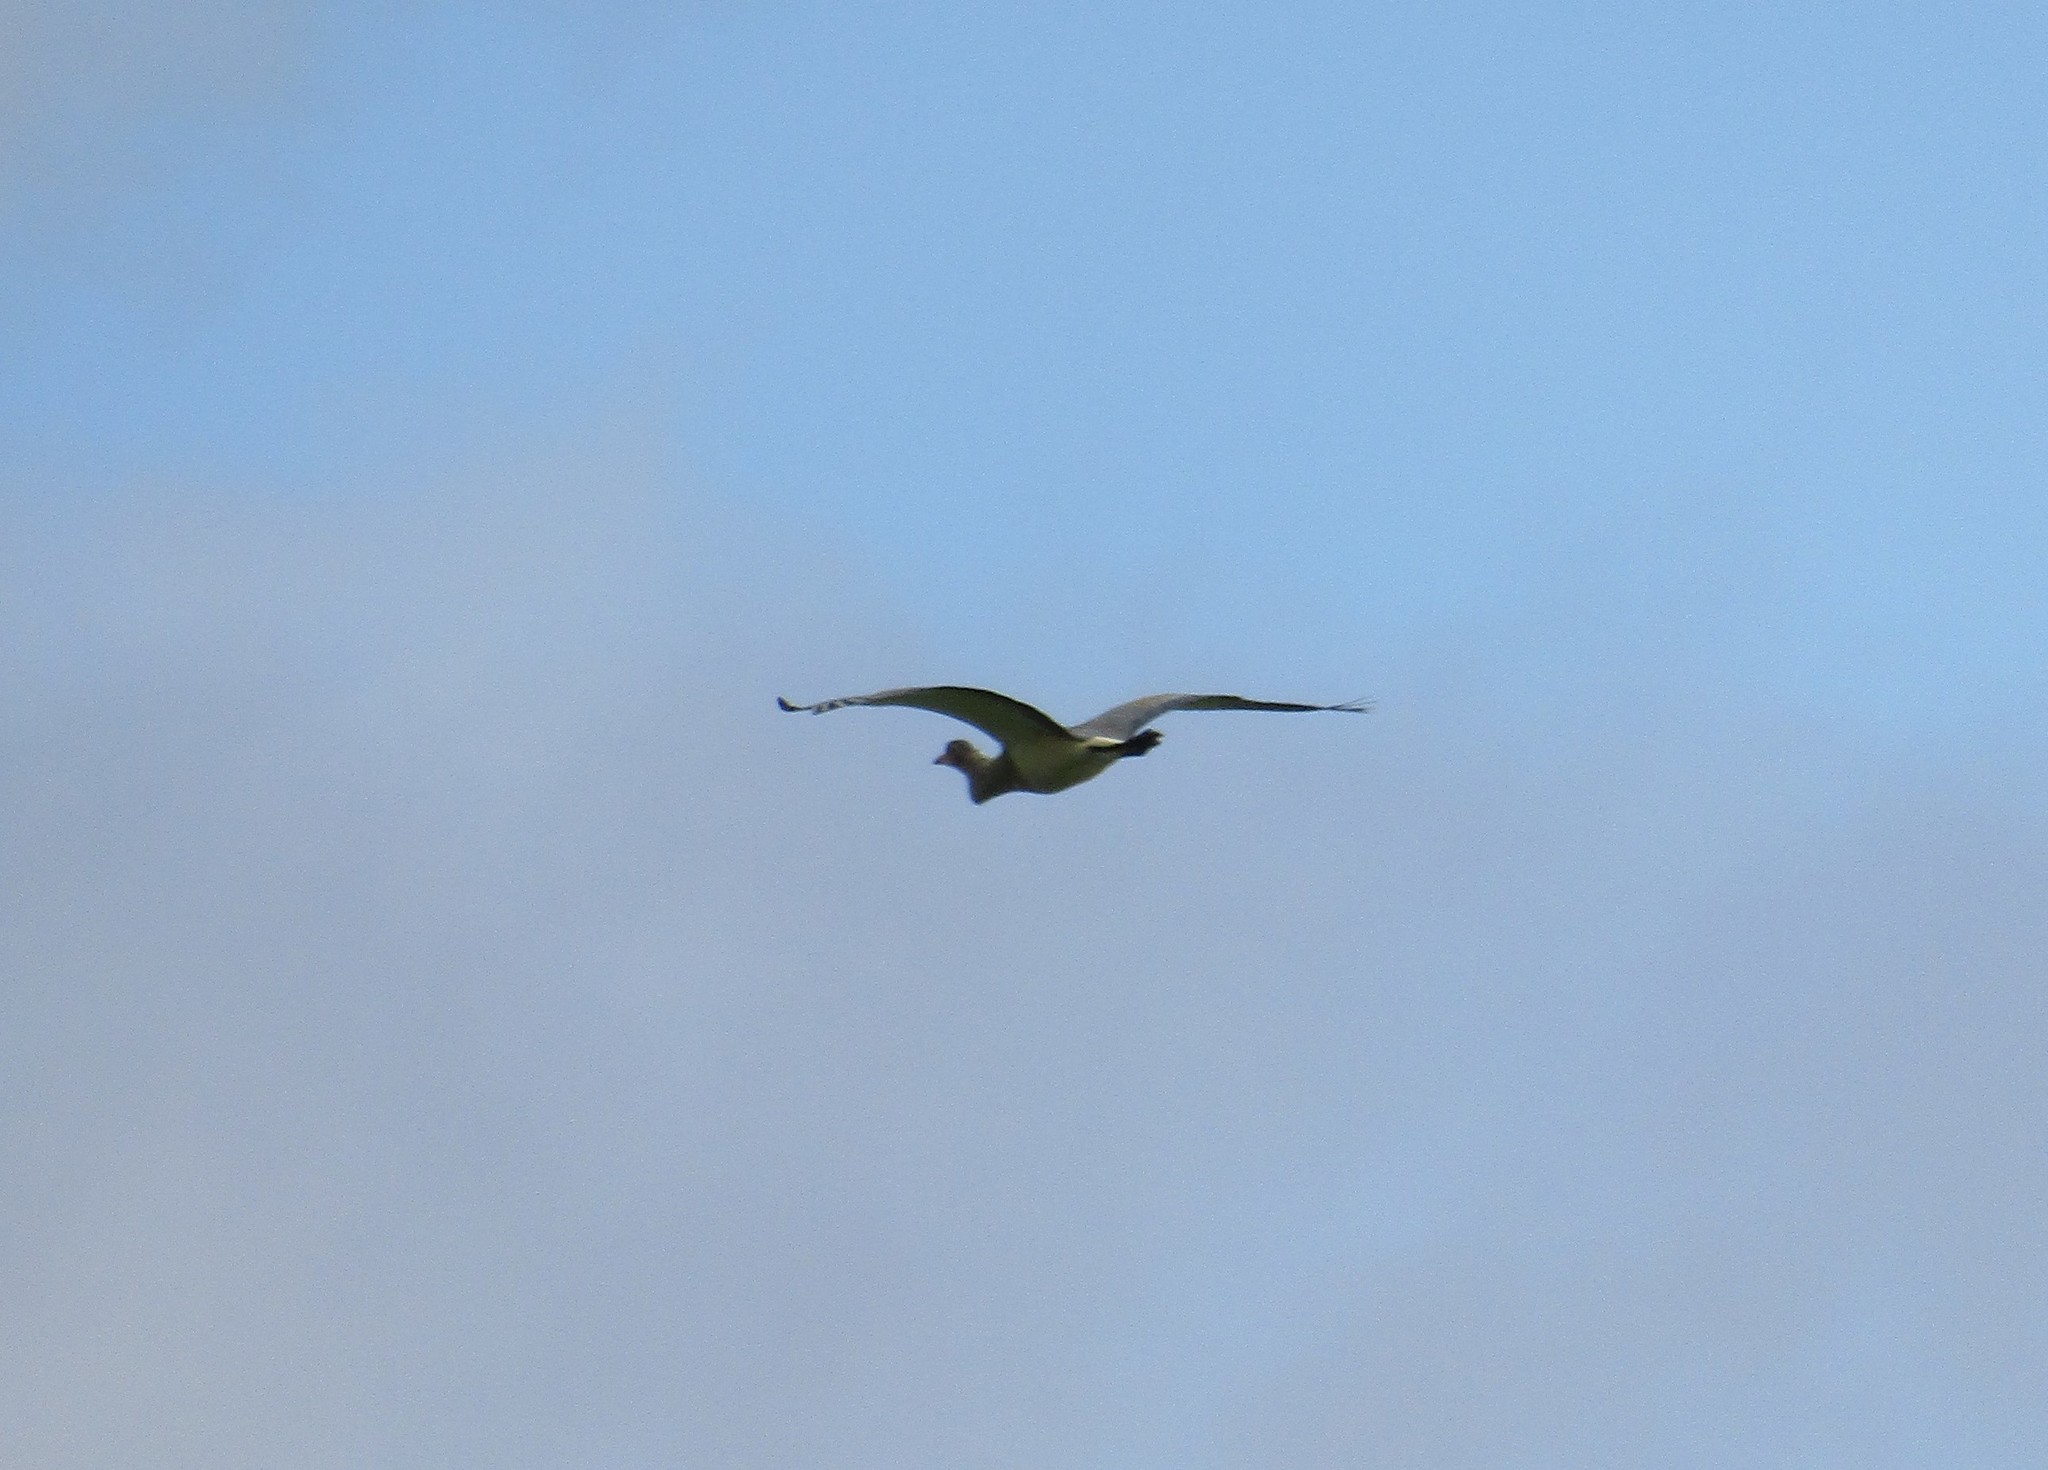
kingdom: Animalia
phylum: Chordata
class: Aves
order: Pelecaniformes
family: Ardeidae
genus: Syrigma
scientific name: Syrigma sibilatrix
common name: Whistling heron
